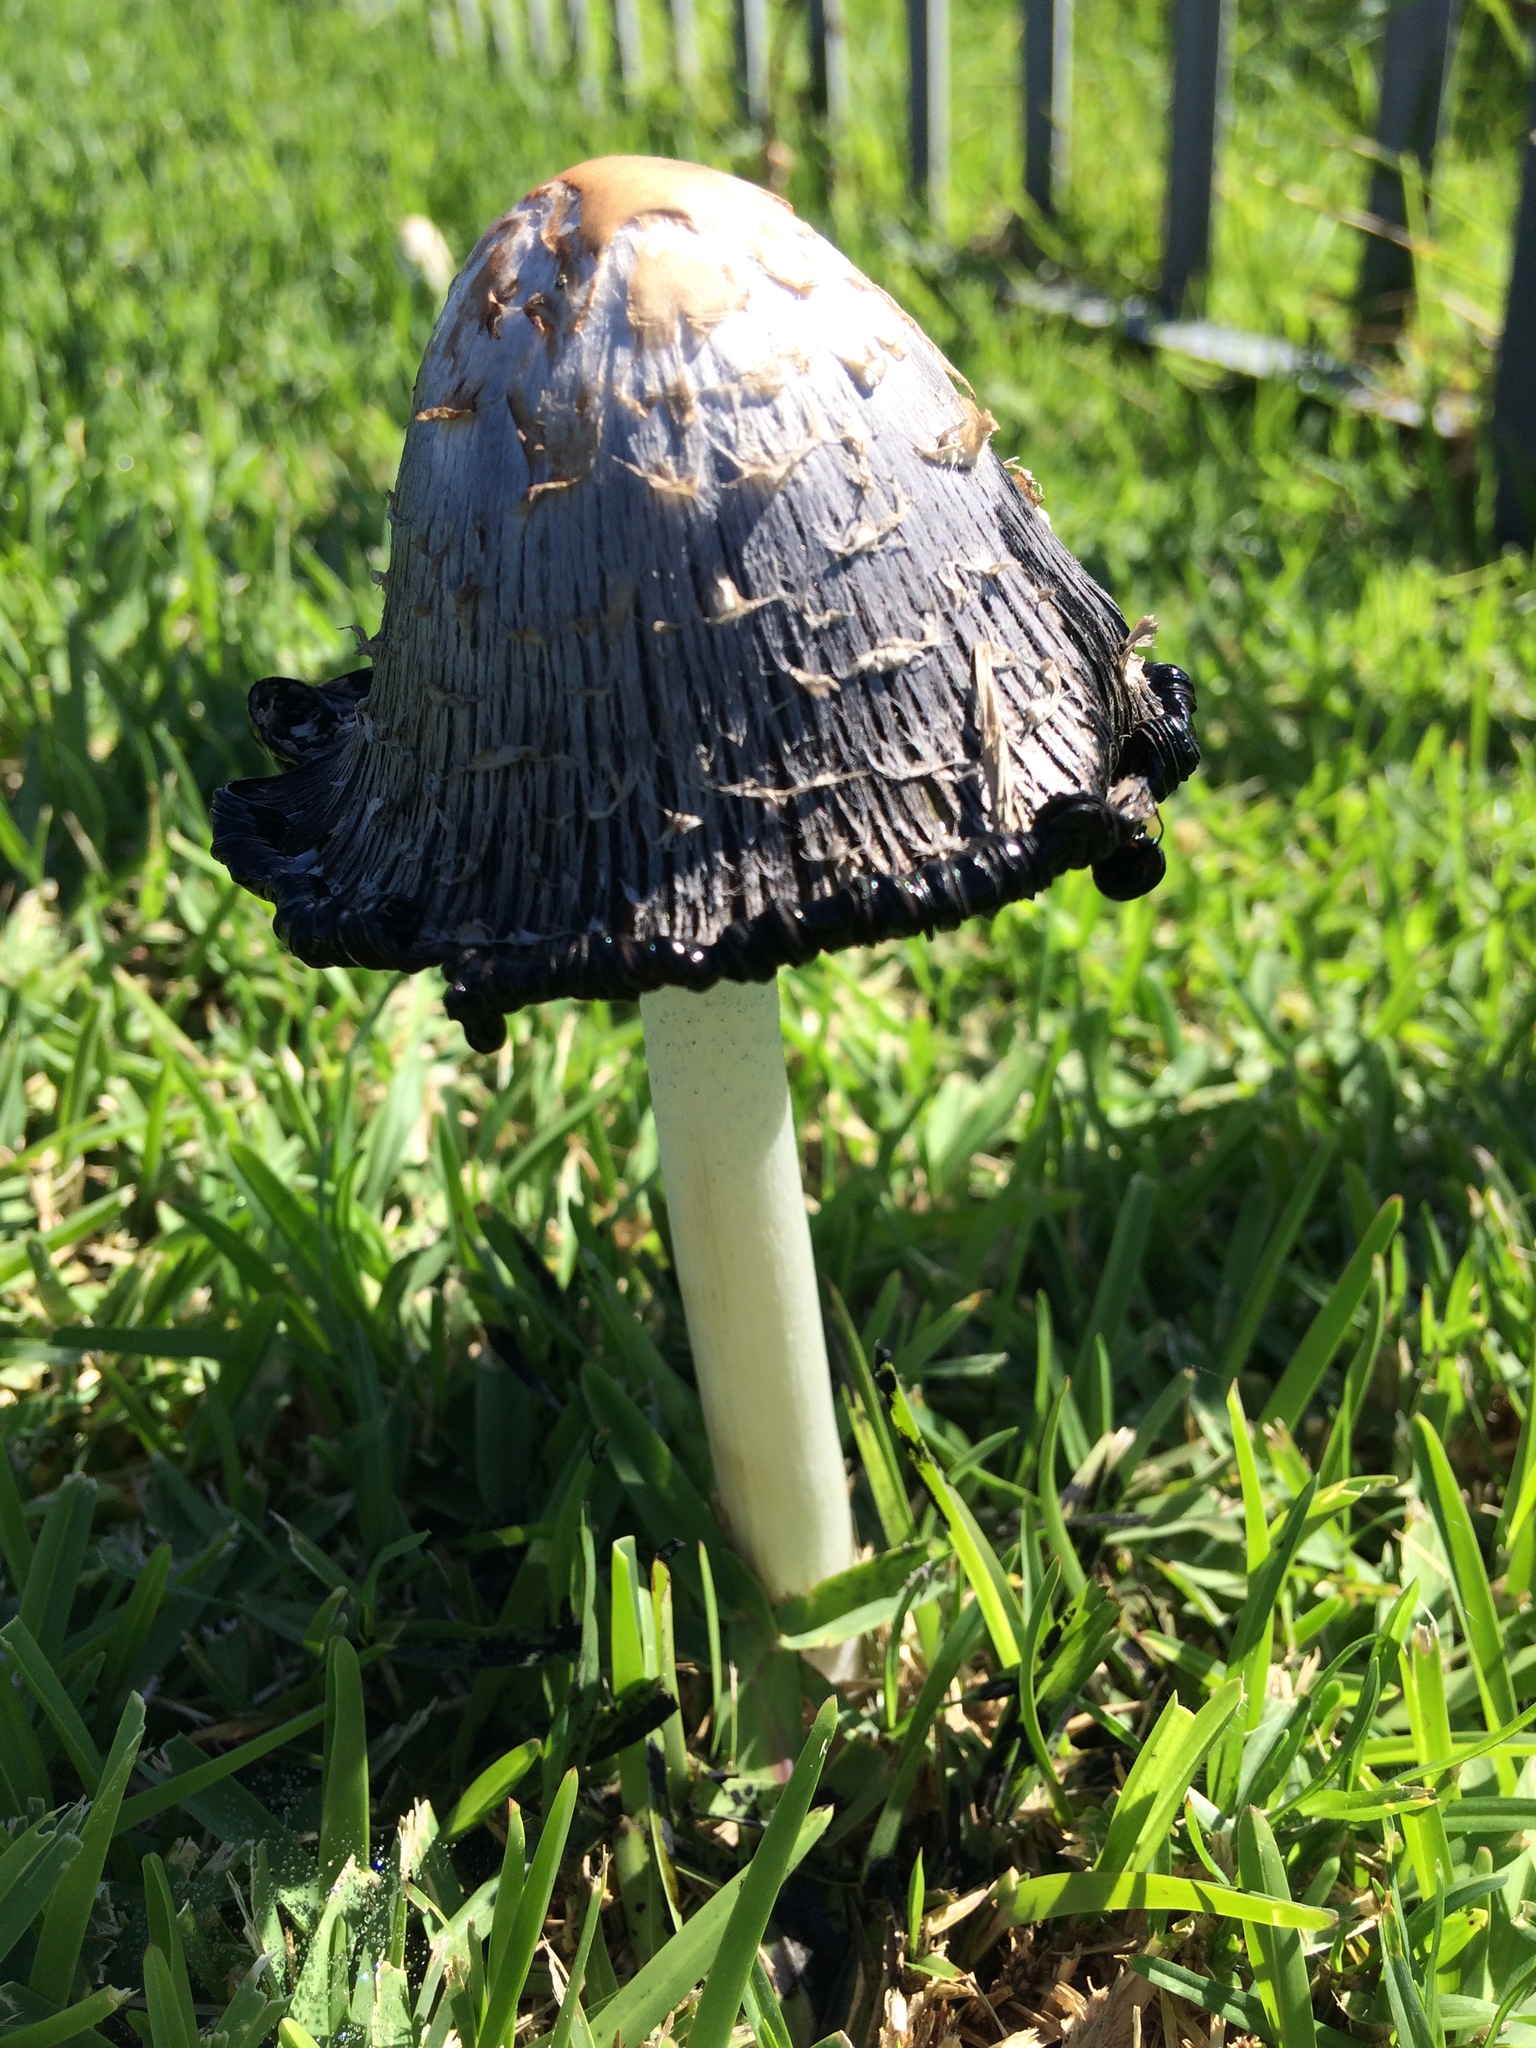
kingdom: Fungi
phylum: Basidiomycota
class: Agaricomycetes
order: Agaricales
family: Agaricaceae
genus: Coprinus
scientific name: Coprinus comatus
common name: Lawyer's wig
